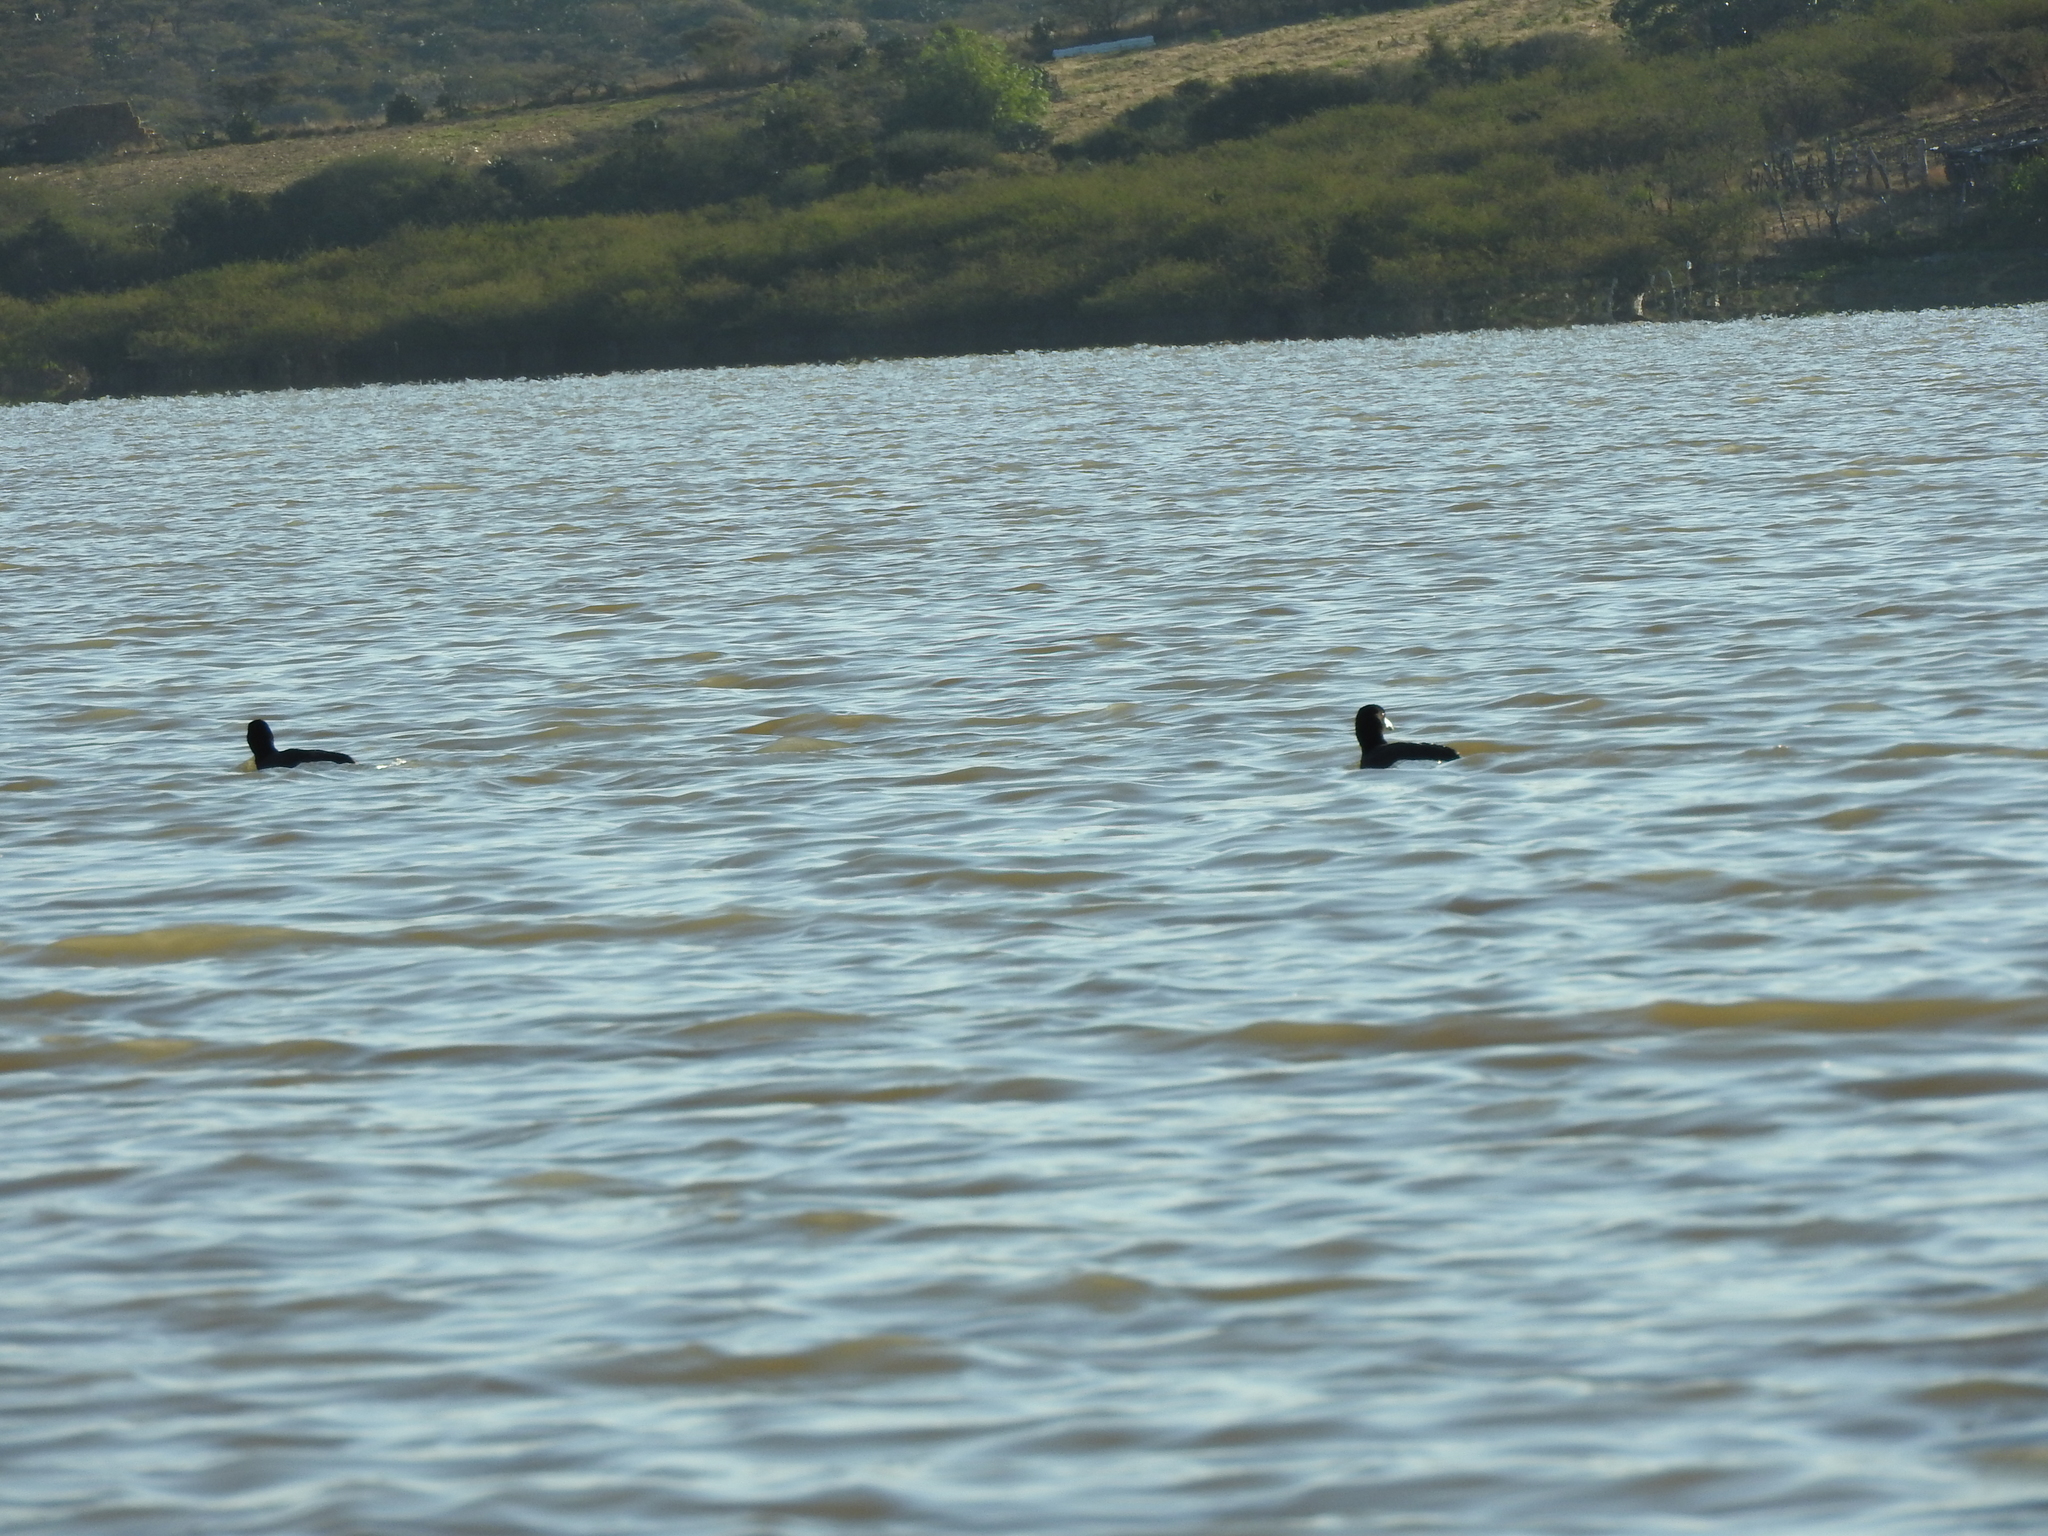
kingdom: Animalia
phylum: Chordata
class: Aves
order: Gruiformes
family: Rallidae
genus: Fulica
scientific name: Fulica americana
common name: American coot
